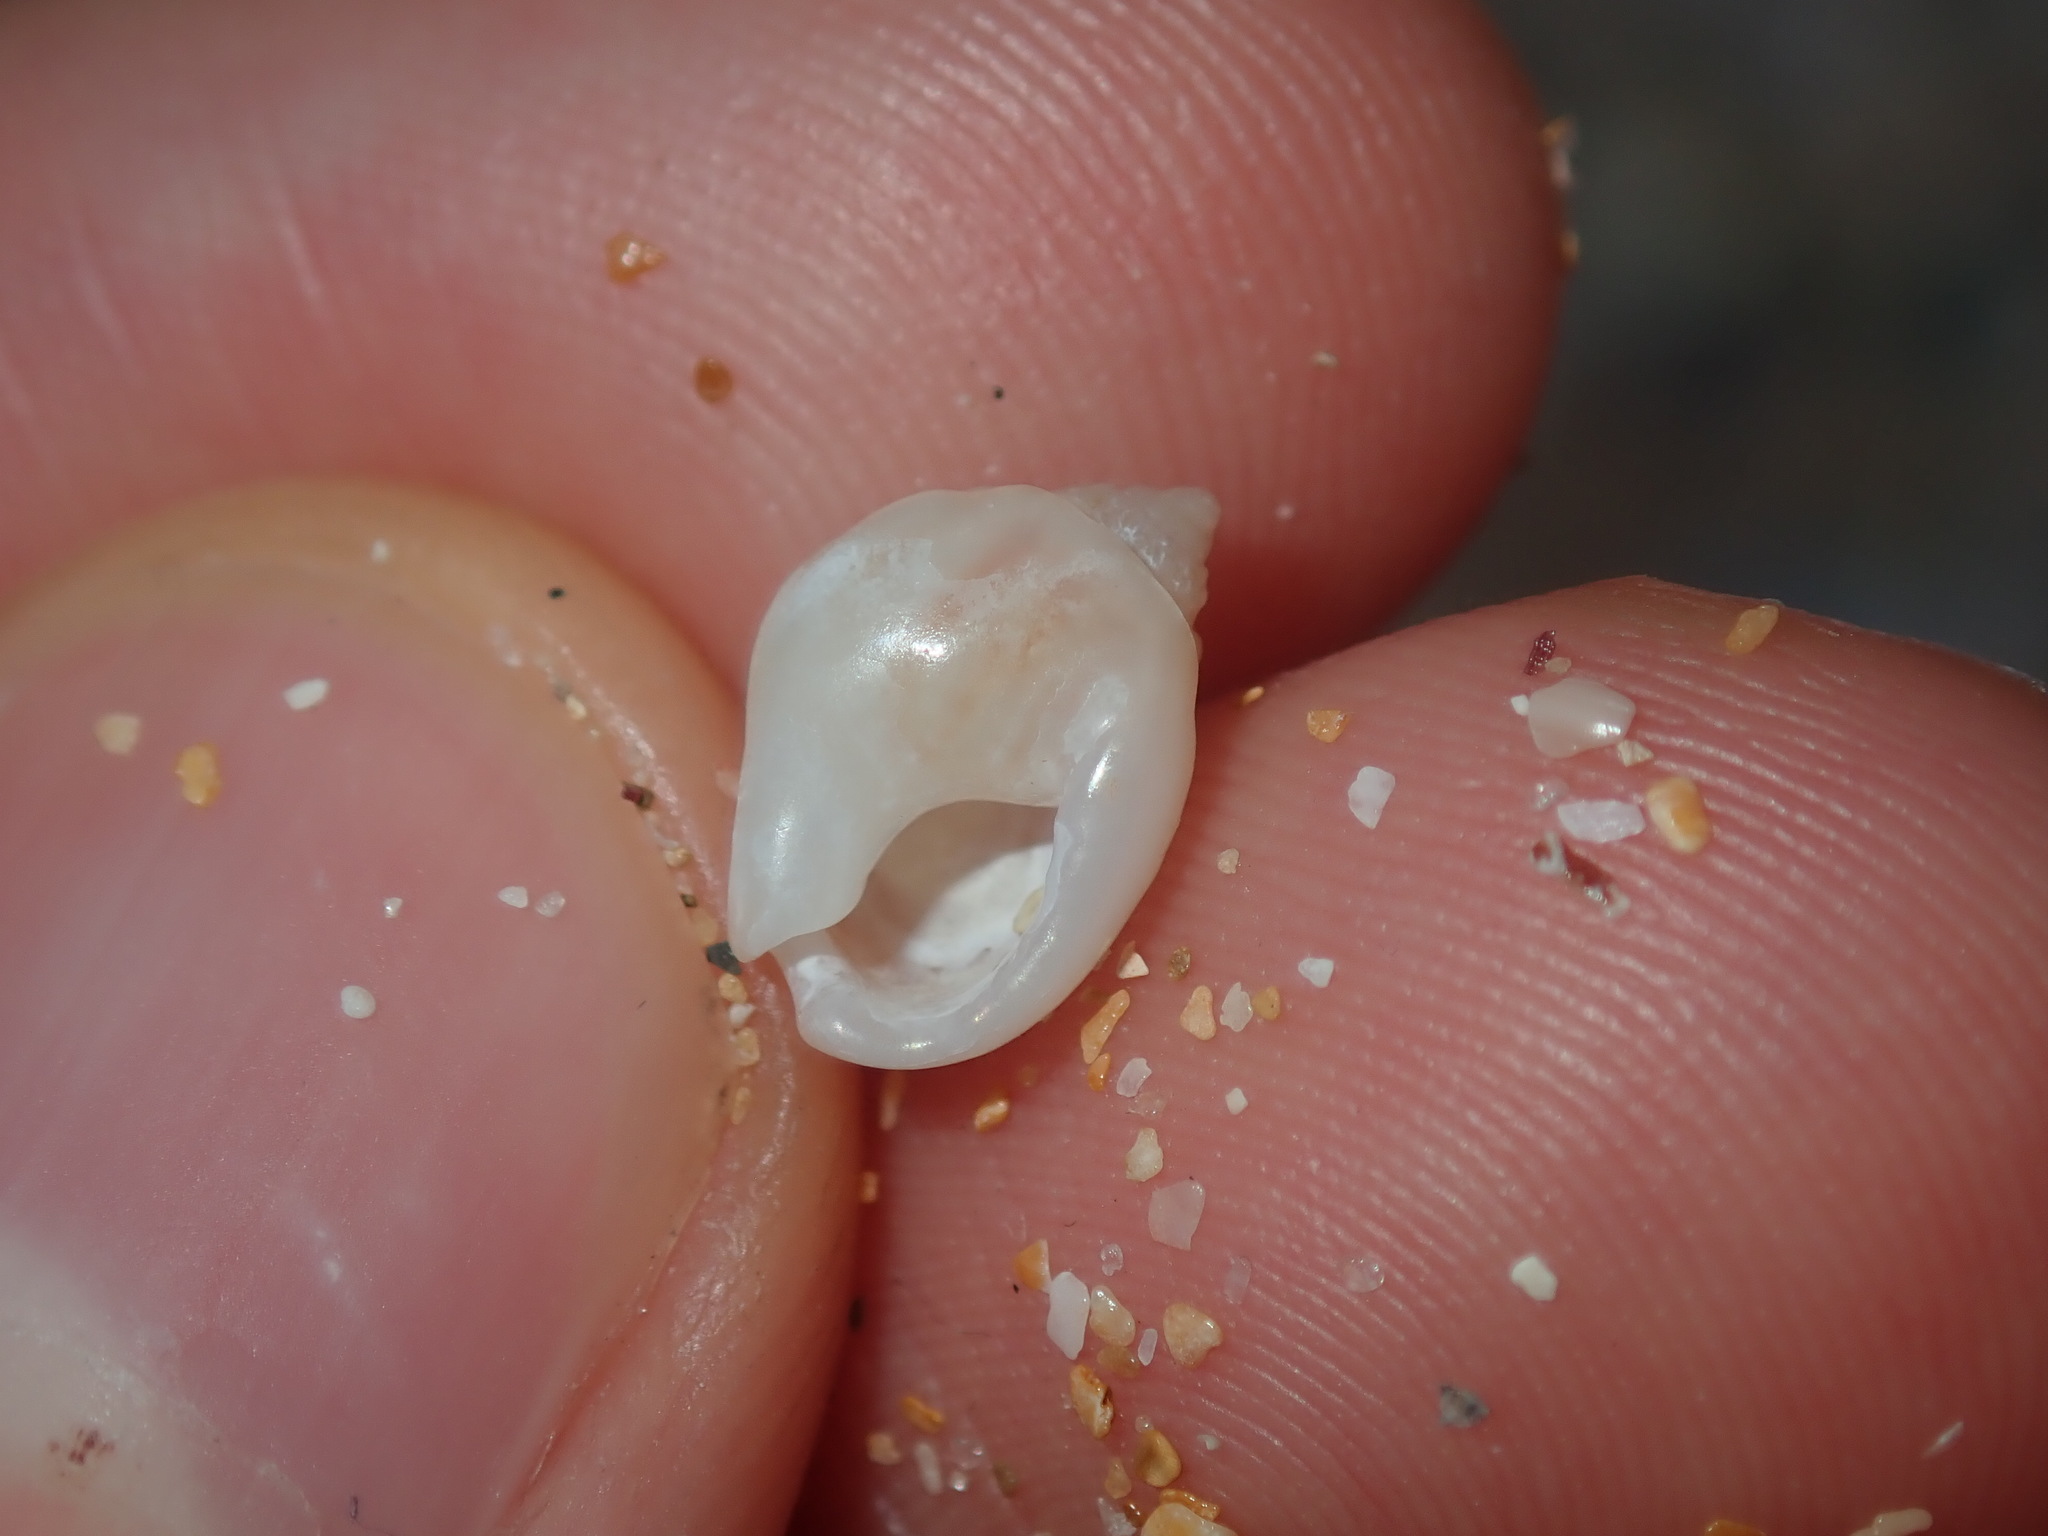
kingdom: Animalia
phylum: Mollusca
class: Gastropoda
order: Neogastropoda
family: Nassariidae
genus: Nassarius
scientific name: Nassarius jonasii
